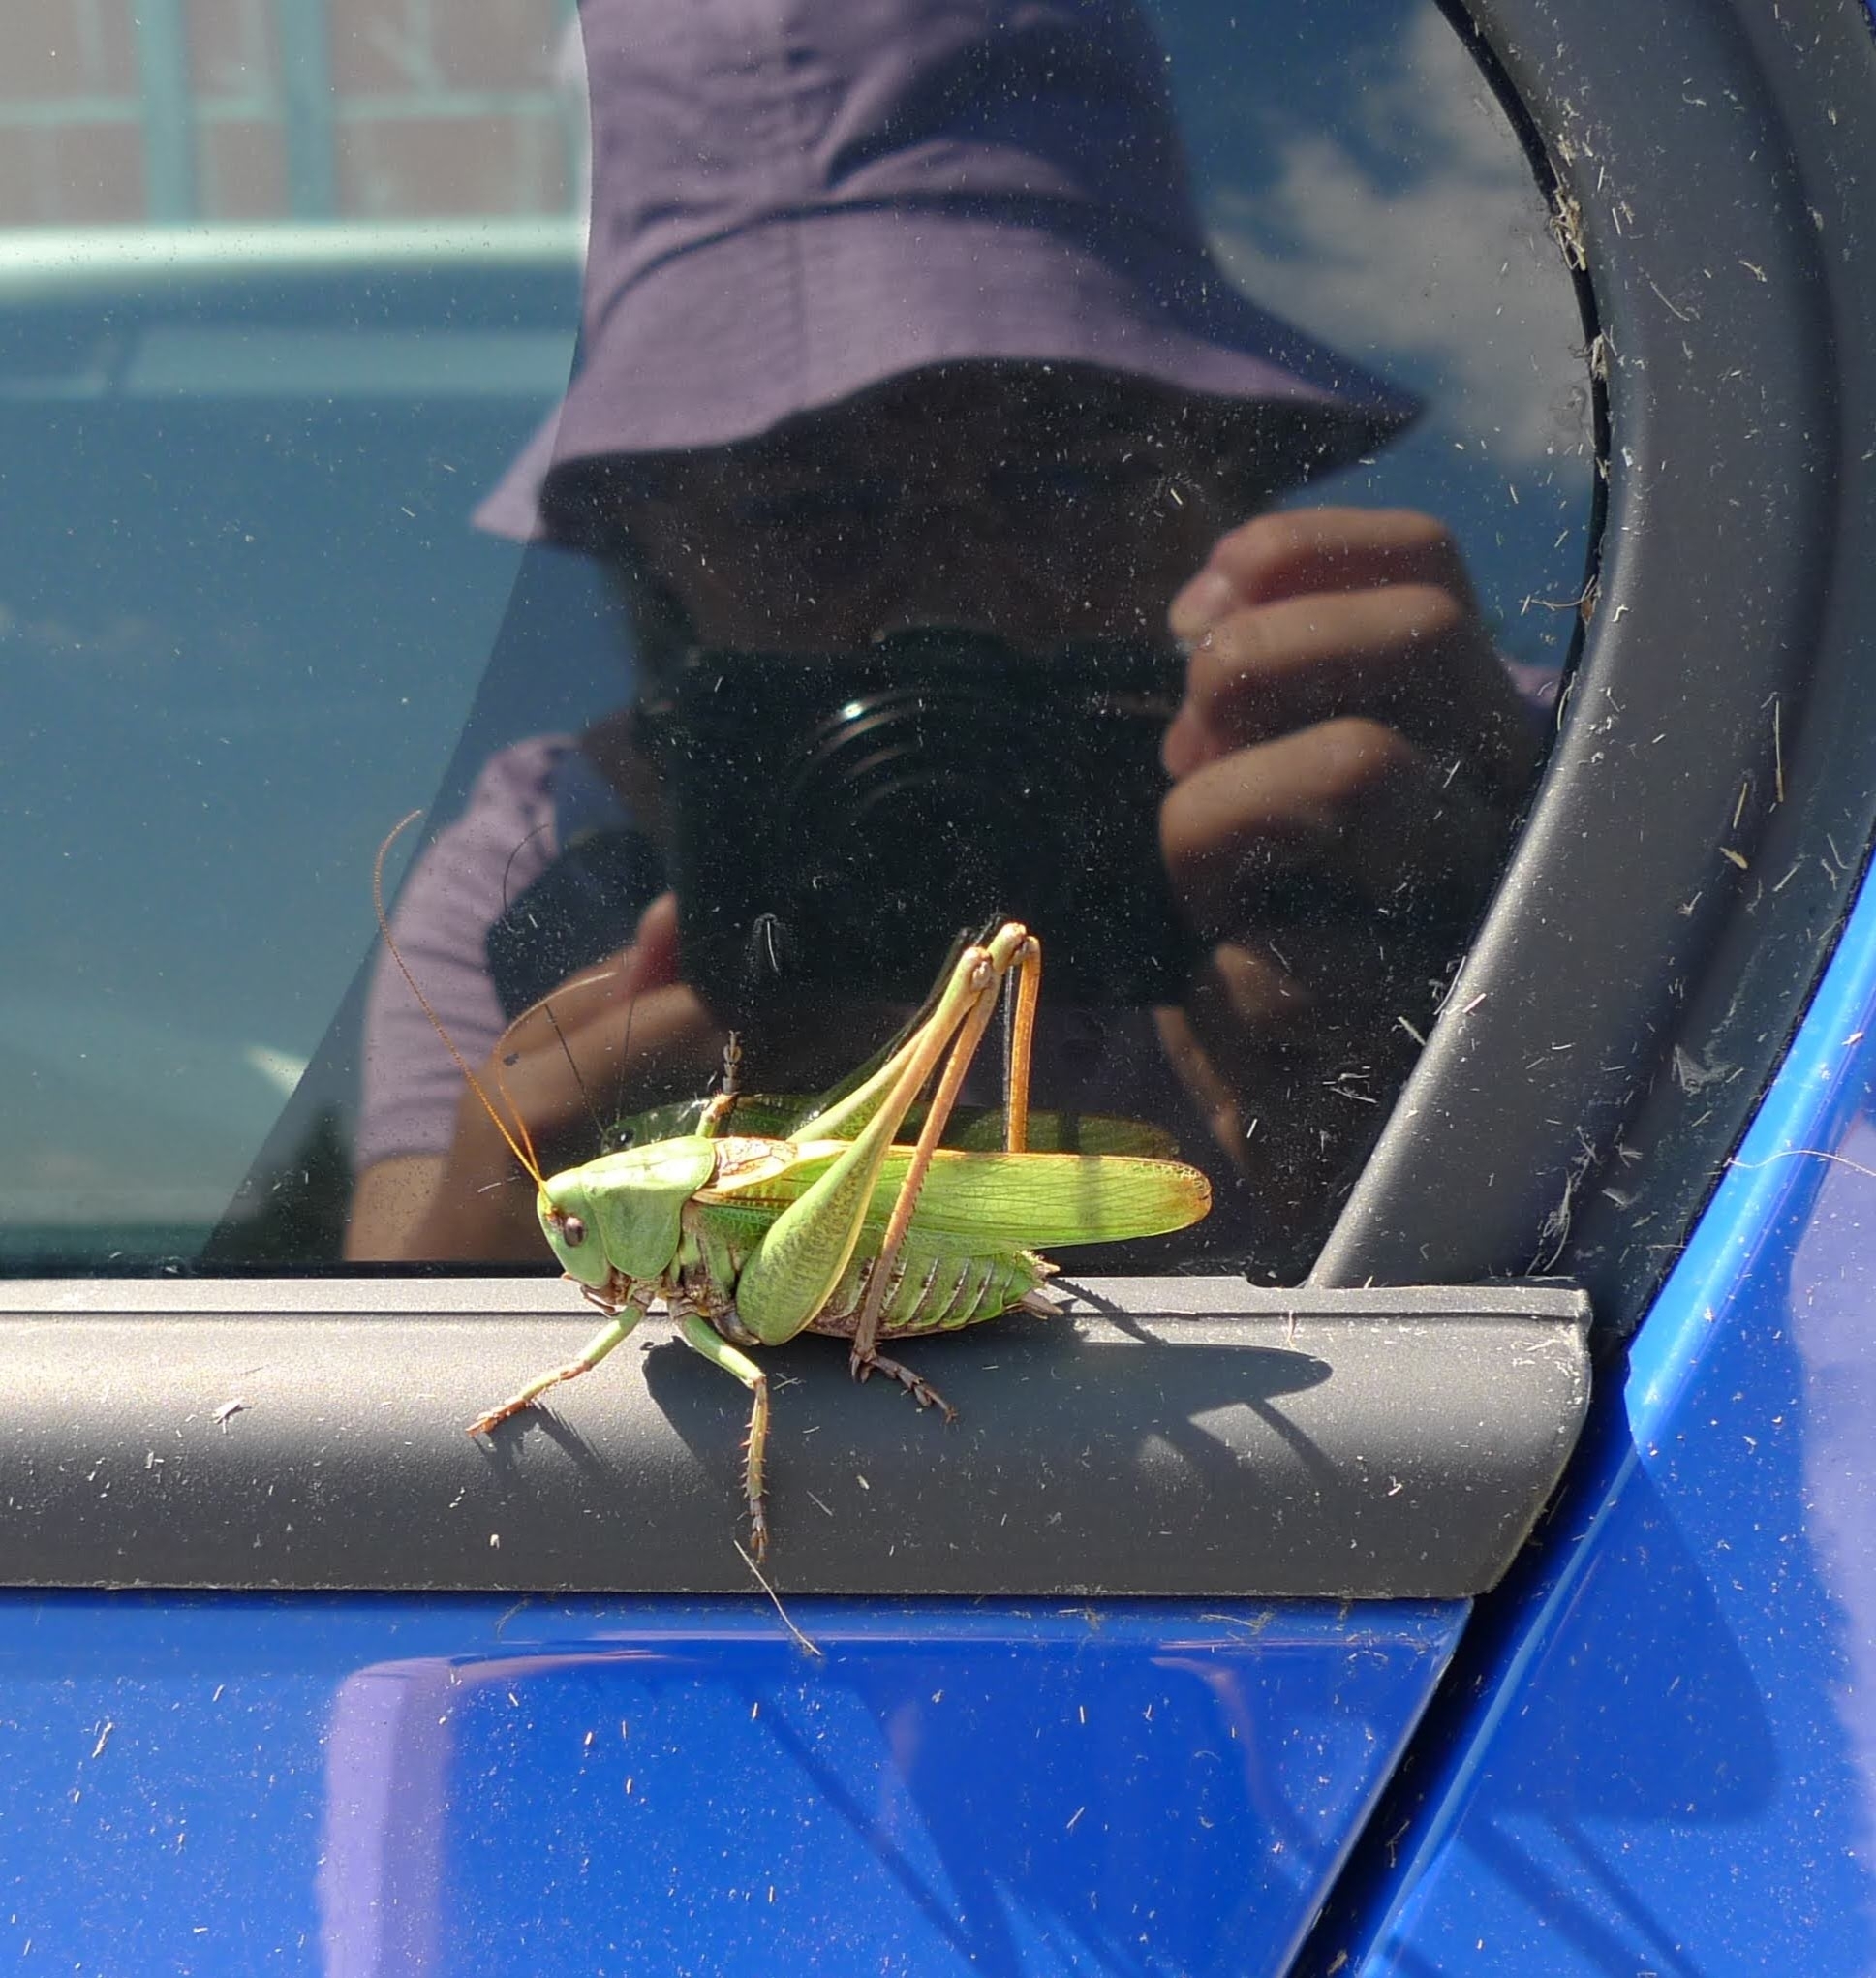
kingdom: Animalia
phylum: Arthropoda
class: Insecta
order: Orthoptera
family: Tettigoniidae
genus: Decticus
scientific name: Decticus verrucivorus
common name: Wart-biter
